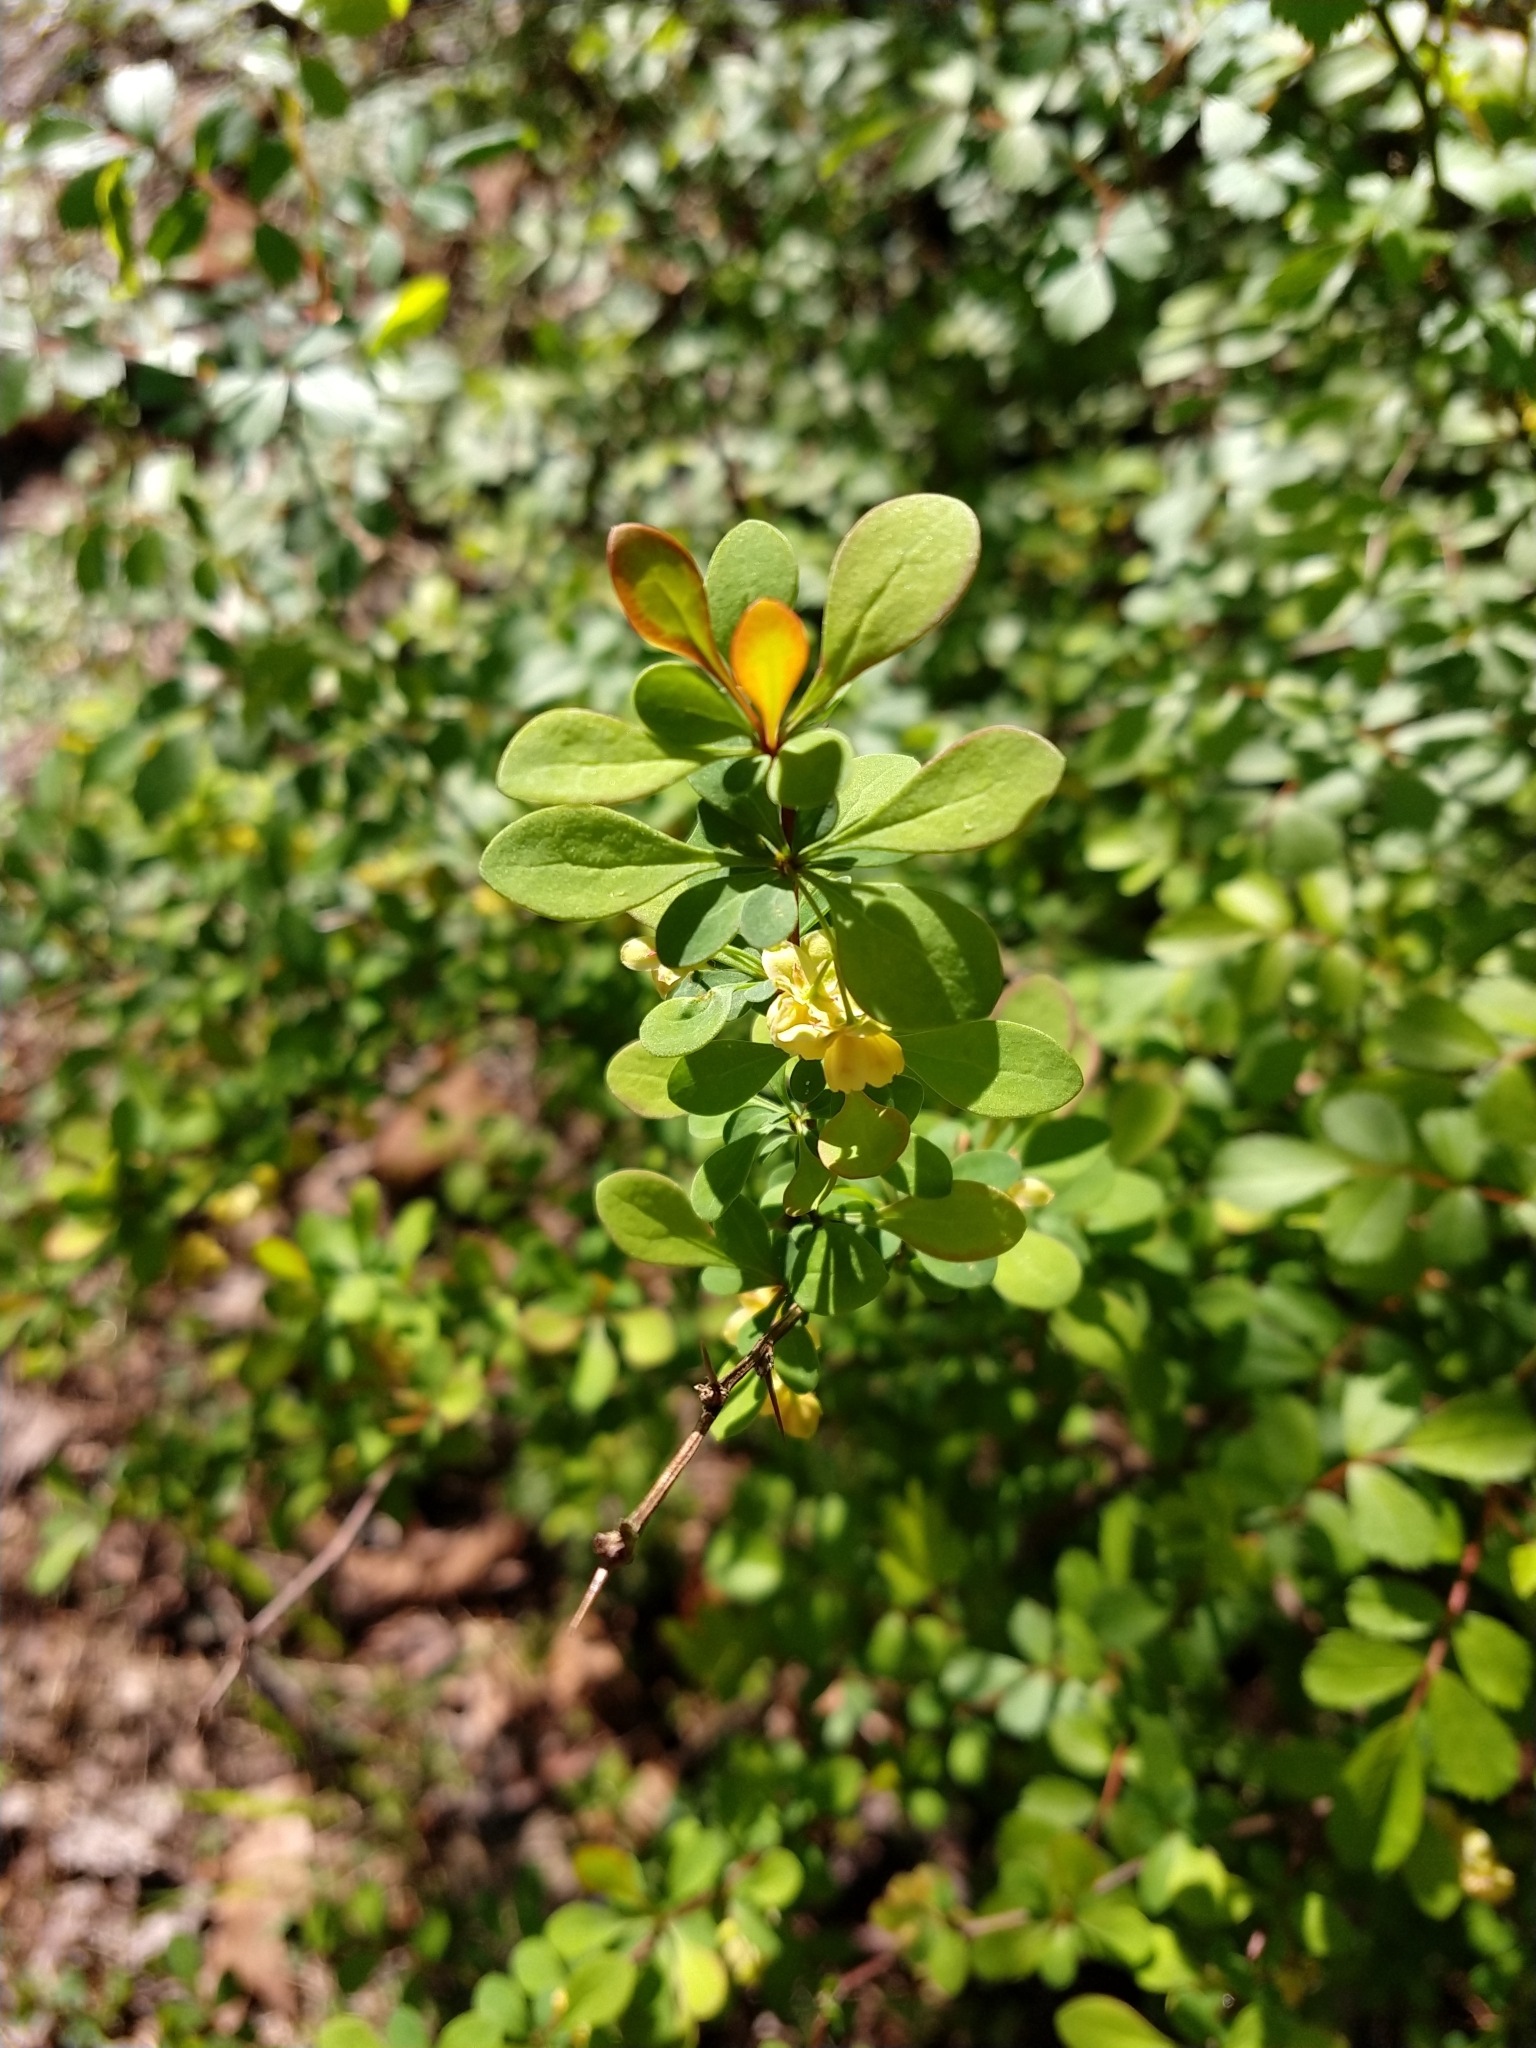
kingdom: Plantae
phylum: Tracheophyta
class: Magnoliopsida
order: Ranunculales
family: Berberidaceae
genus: Berberis
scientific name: Berberis thunbergii
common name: Japanese barberry
